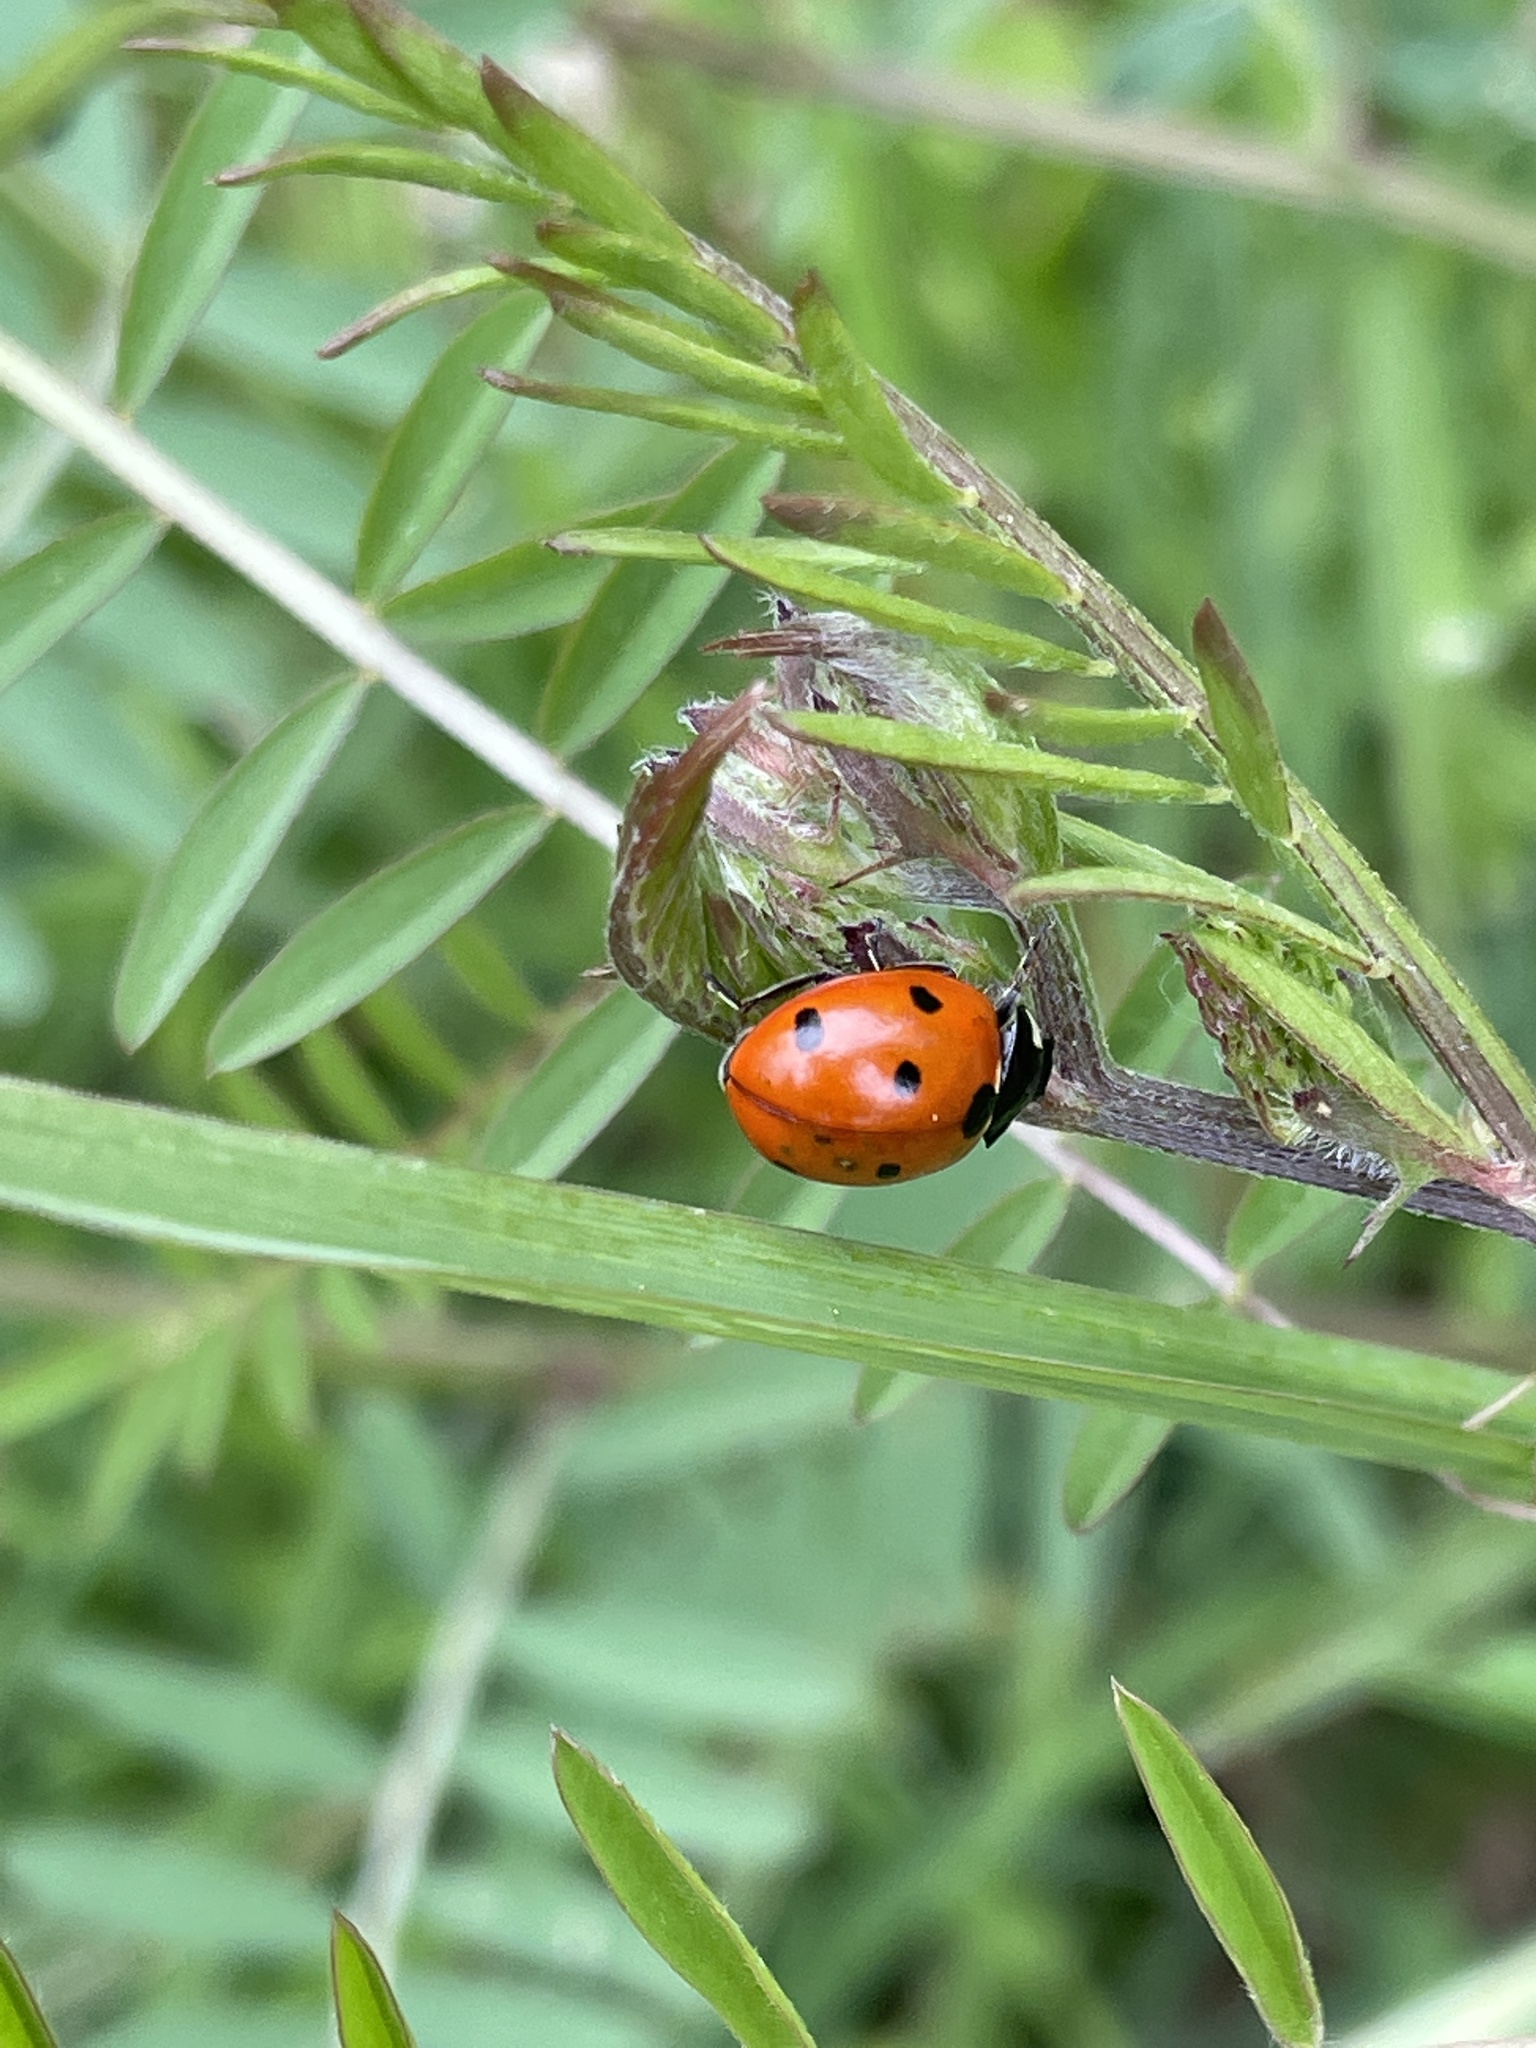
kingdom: Animalia
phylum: Arthropoda
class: Insecta
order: Coleoptera
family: Coccinellidae
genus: Coccinella
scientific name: Coccinella septempunctata
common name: Sevenspotted lady beetle
